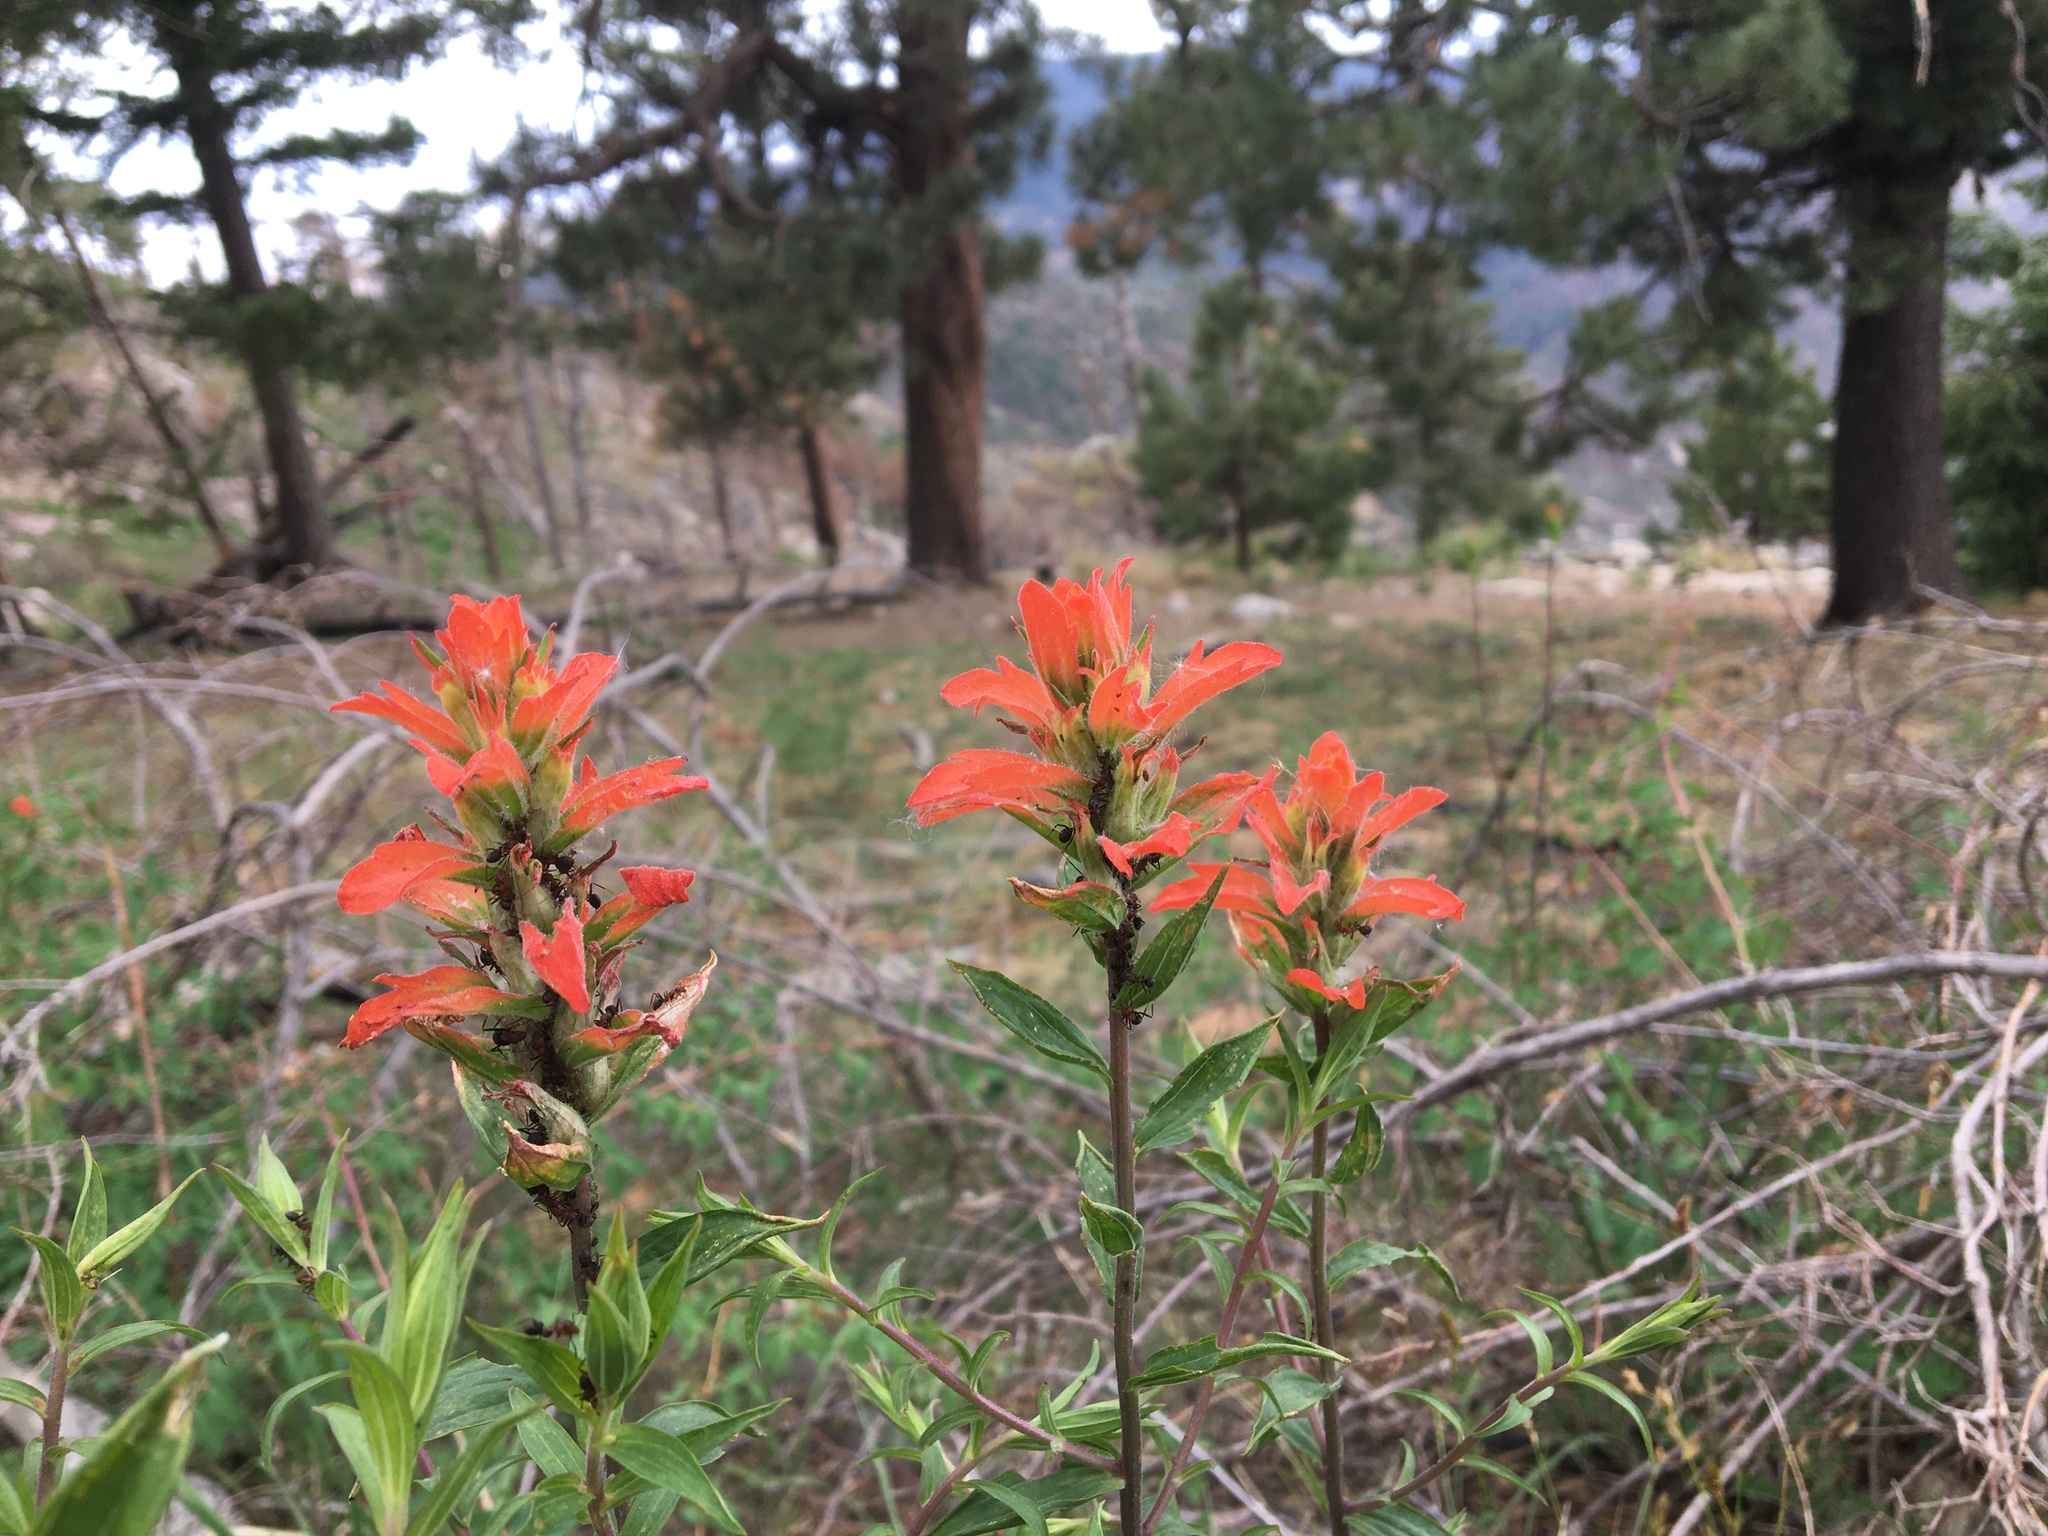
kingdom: Plantae
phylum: Tracheophyta
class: Magnoliopsida
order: Lamiales
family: Orobanchaceae
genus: Castilleja
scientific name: Castilleja nelsonii
